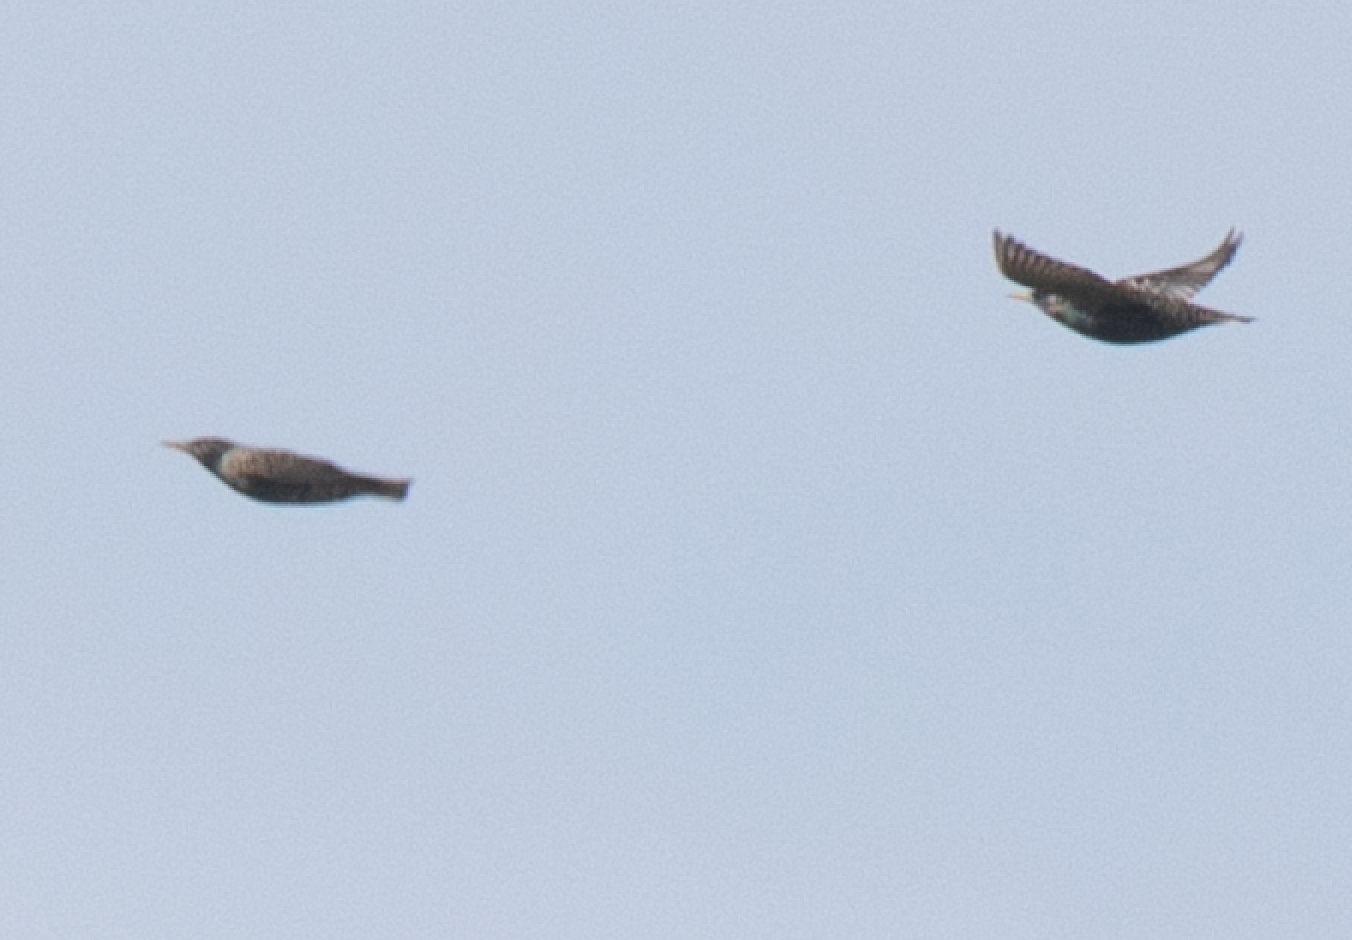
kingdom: Animalia
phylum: Chordata
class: Aves
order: Passeriformes
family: Sturnidae
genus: Sturnus
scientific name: Sturnus vulgaris
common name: Common starling
